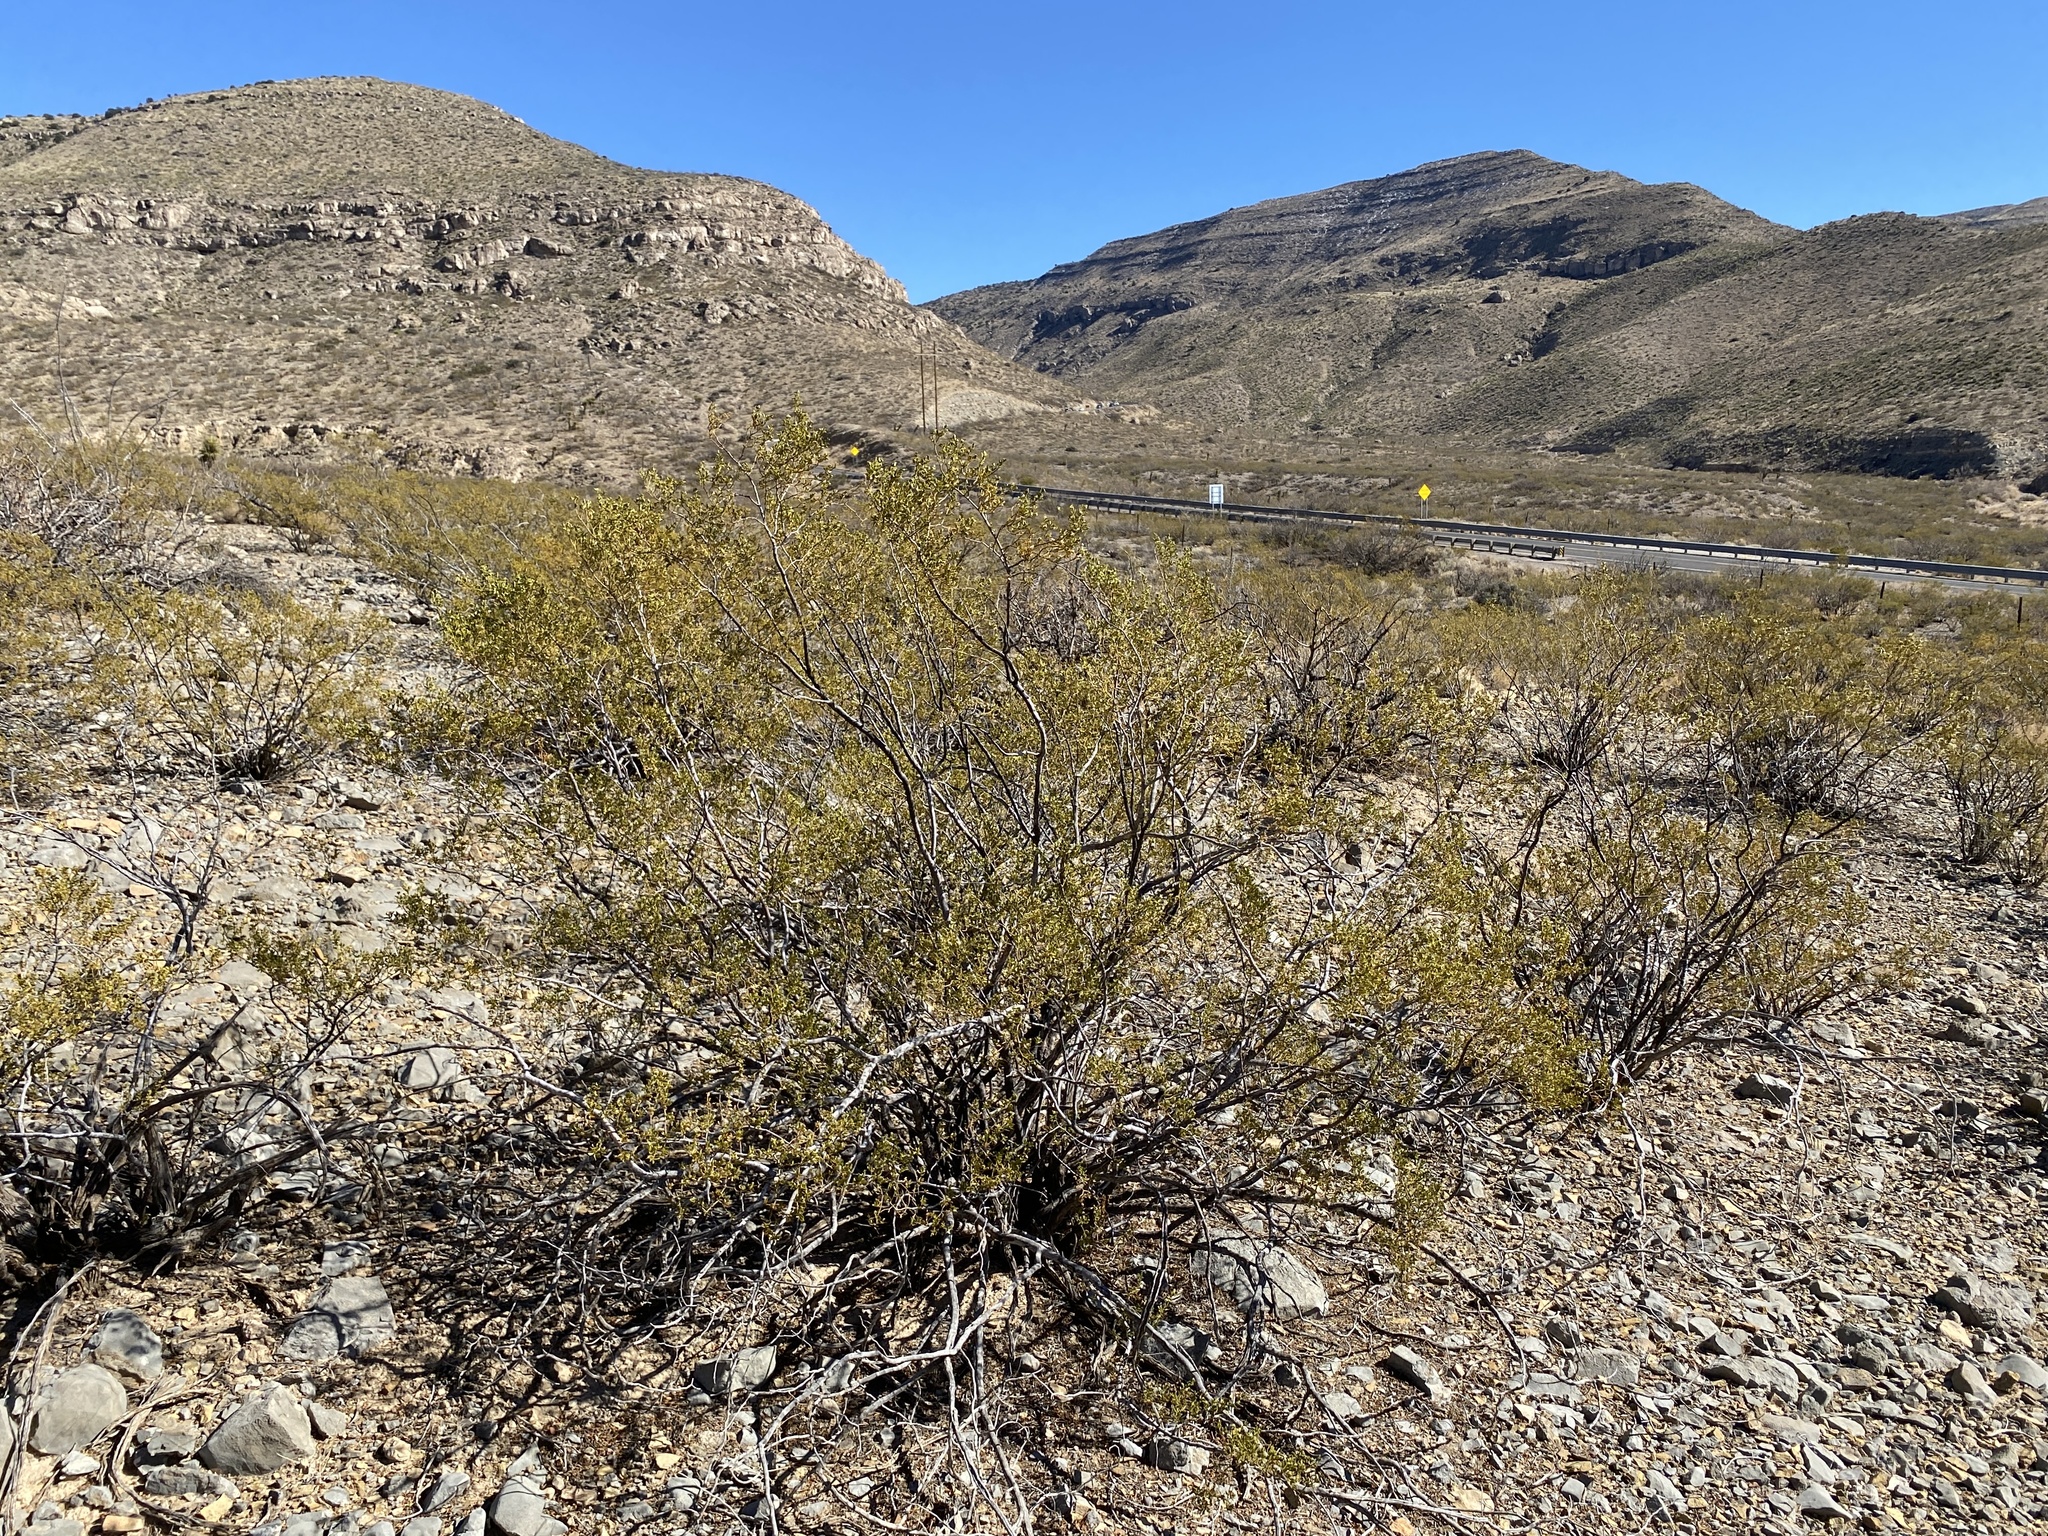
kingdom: Plantae
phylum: Tracheophyta
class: Magnoliopsida
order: Zygophyllales
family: Zygophyllaceae
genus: Larrea
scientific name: Larrea tridentata
